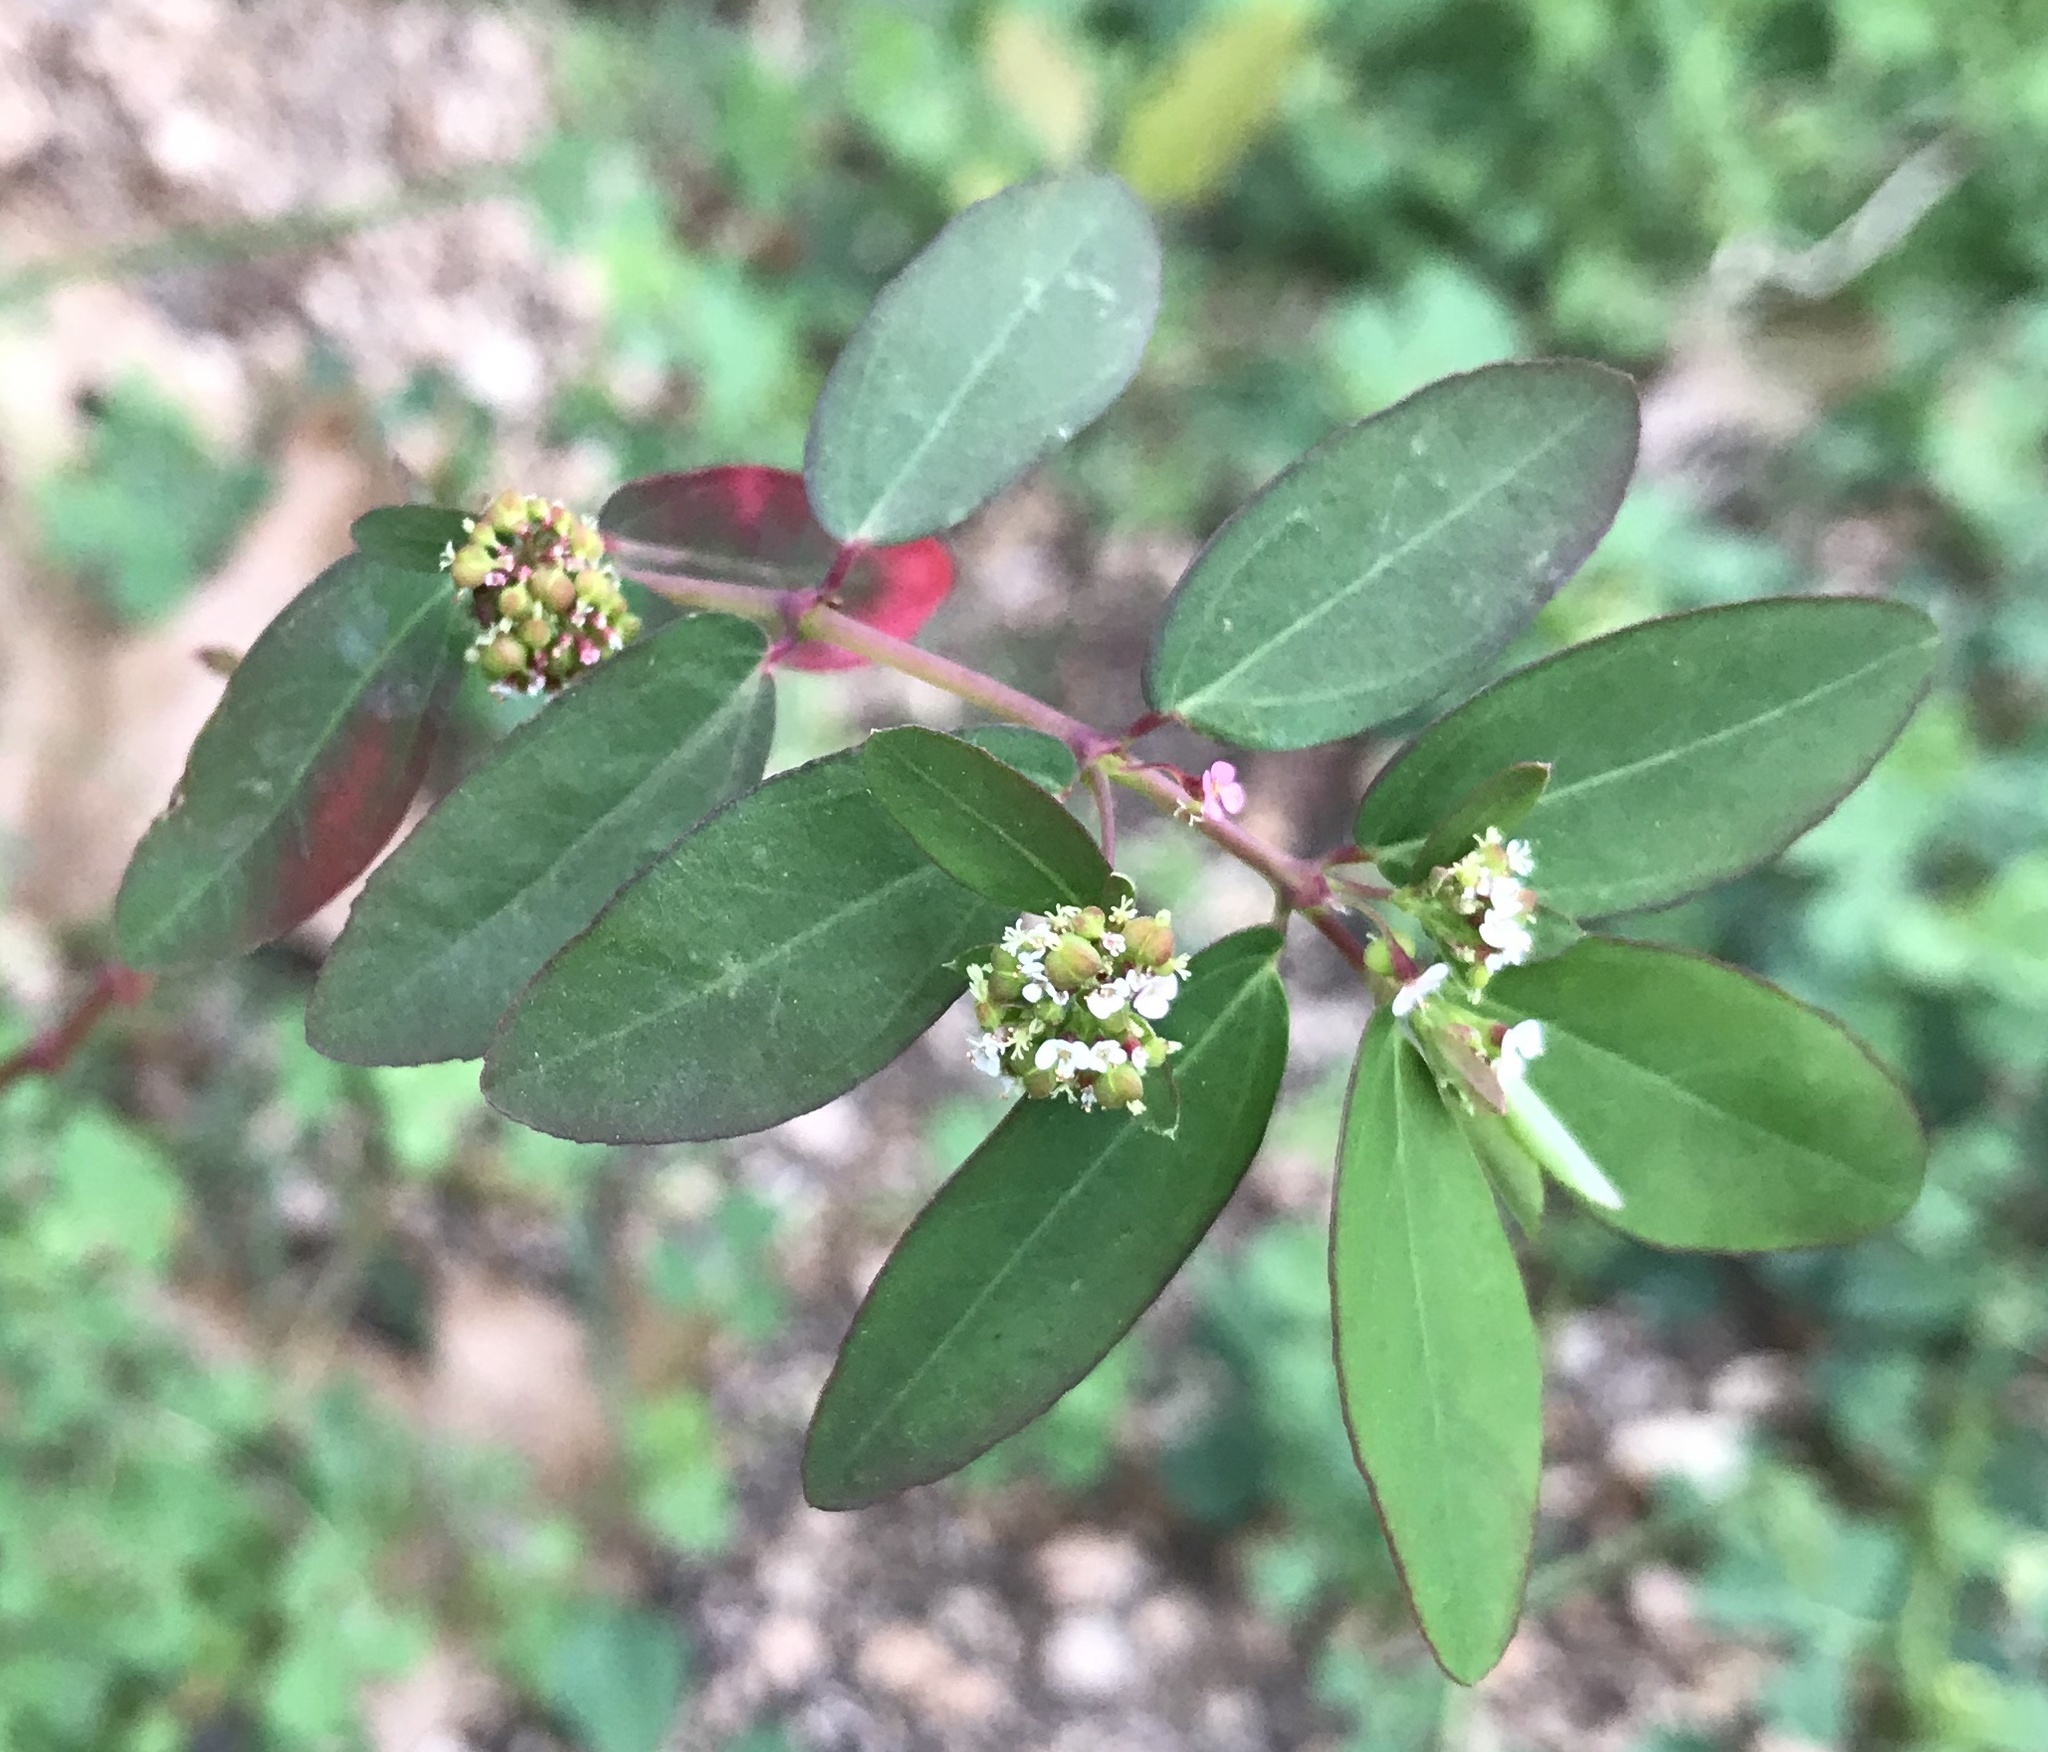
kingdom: Plantae
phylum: Tracheophyta
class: Magnoliopsida
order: Malpighiales
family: Euphorbiaceae
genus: Euphorbia
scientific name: Euphorbia hypericifolia
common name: Graceful sandmat
